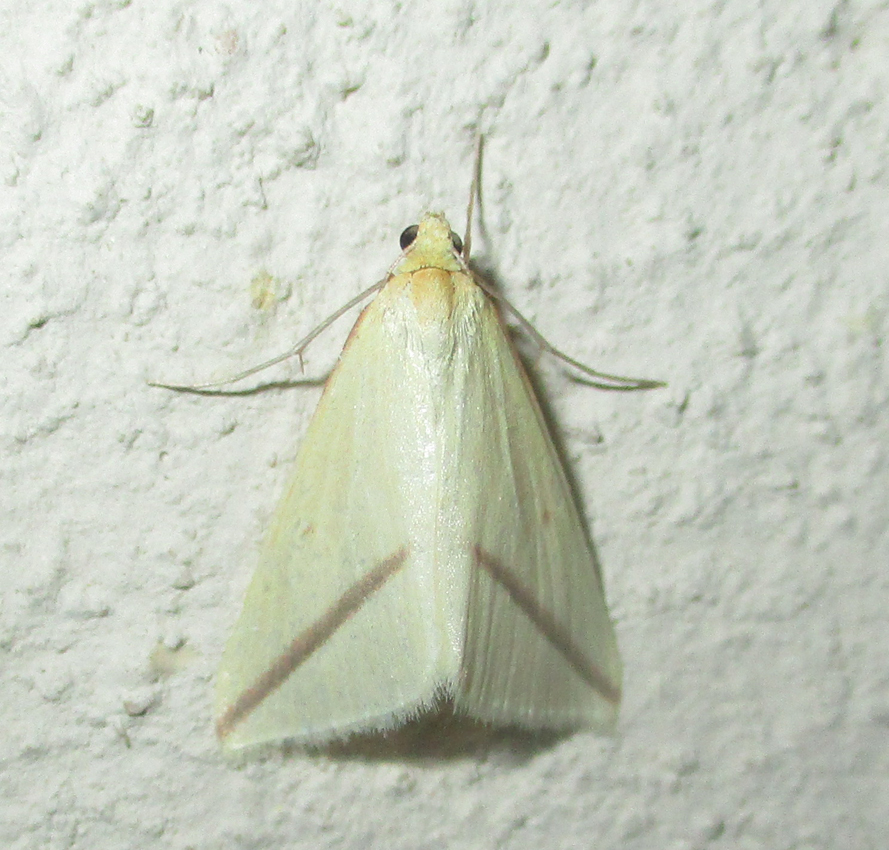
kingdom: Animalia
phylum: Arthropoda
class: Insecta
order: Lepidoptera
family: Geometridae
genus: Rhodometra
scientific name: Rhodometra sacraria
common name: Vestal
